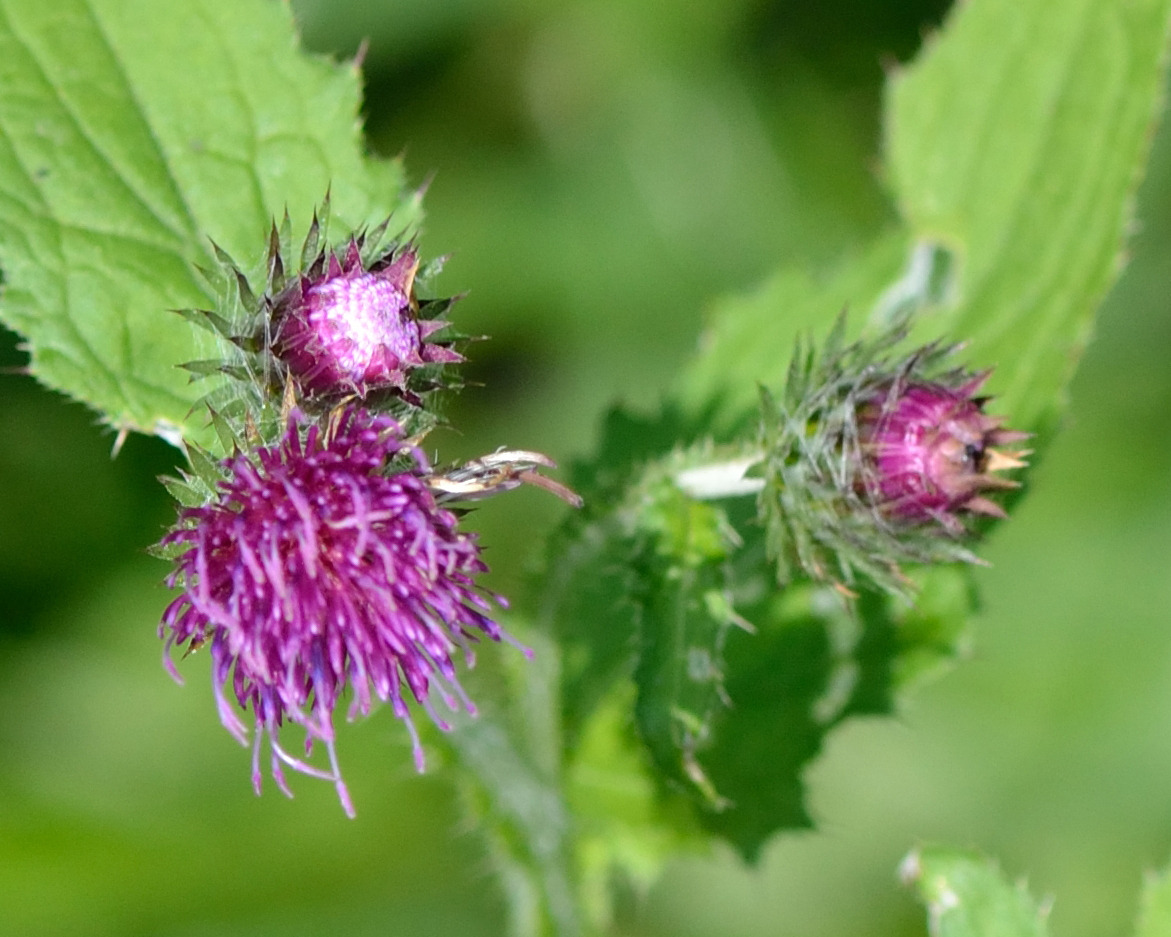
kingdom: Plantae
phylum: Tracheophyta
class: Magnoliopsida
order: Asterales
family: Asteraceae
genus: Carduus
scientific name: Carduus crispus
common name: Welted thistle
